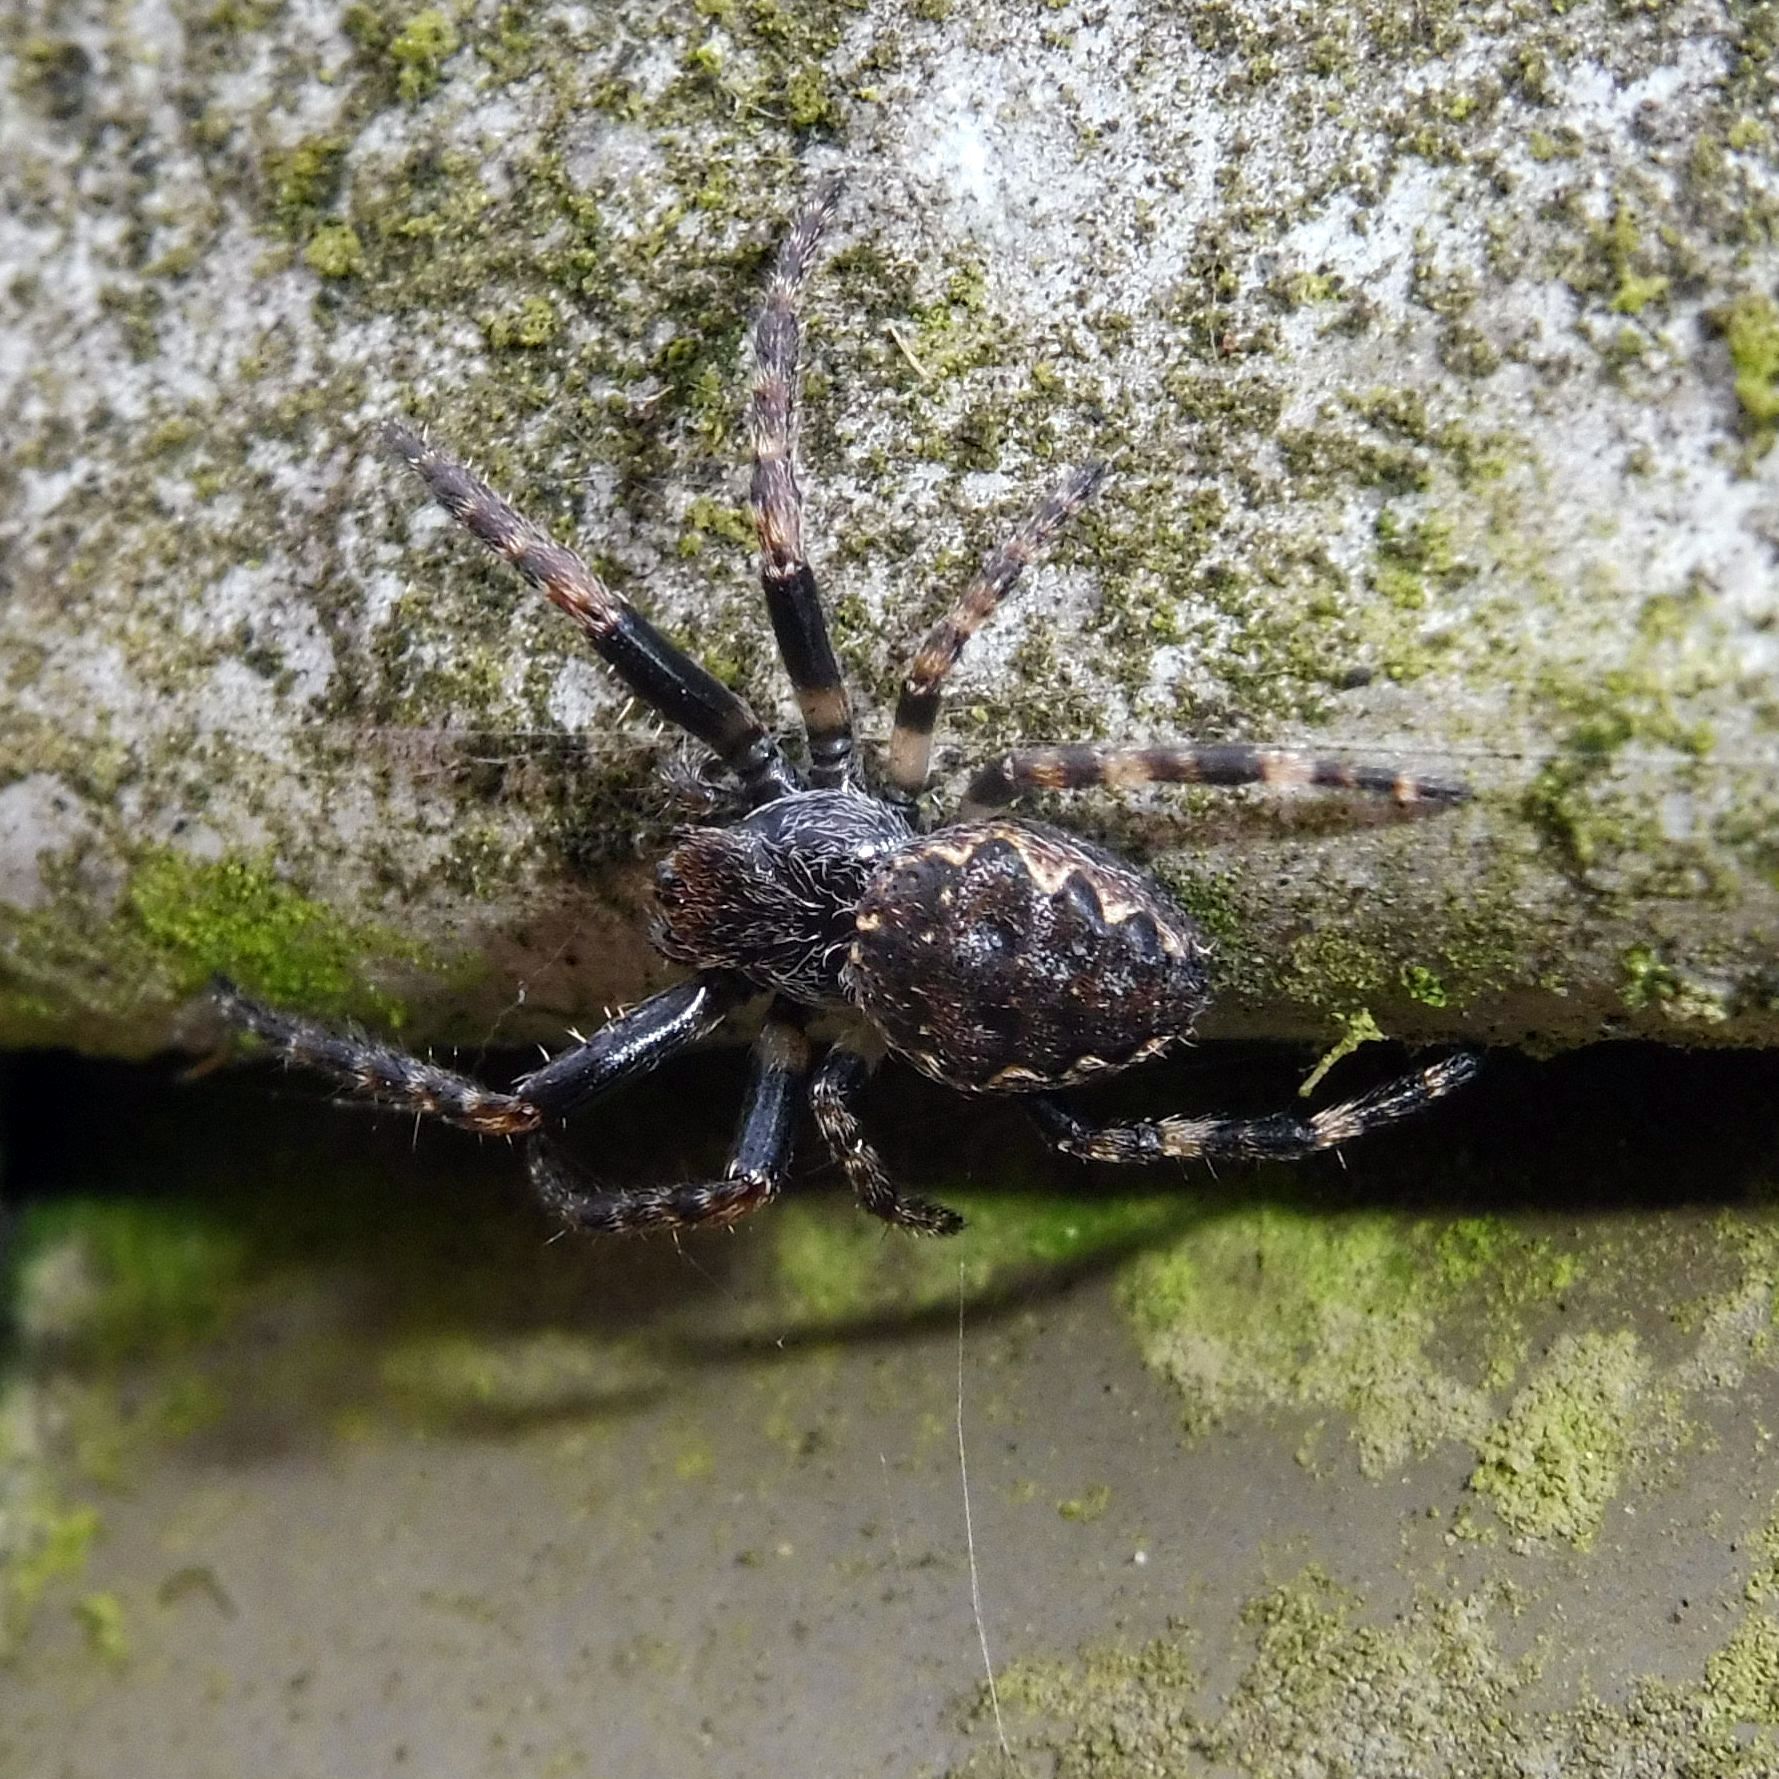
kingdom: Animalia
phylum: Arthropoda
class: Arachnida
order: Araneae
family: Araneidae
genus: Nuctenea
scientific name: Nuctenea umbratica
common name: Toad spider
